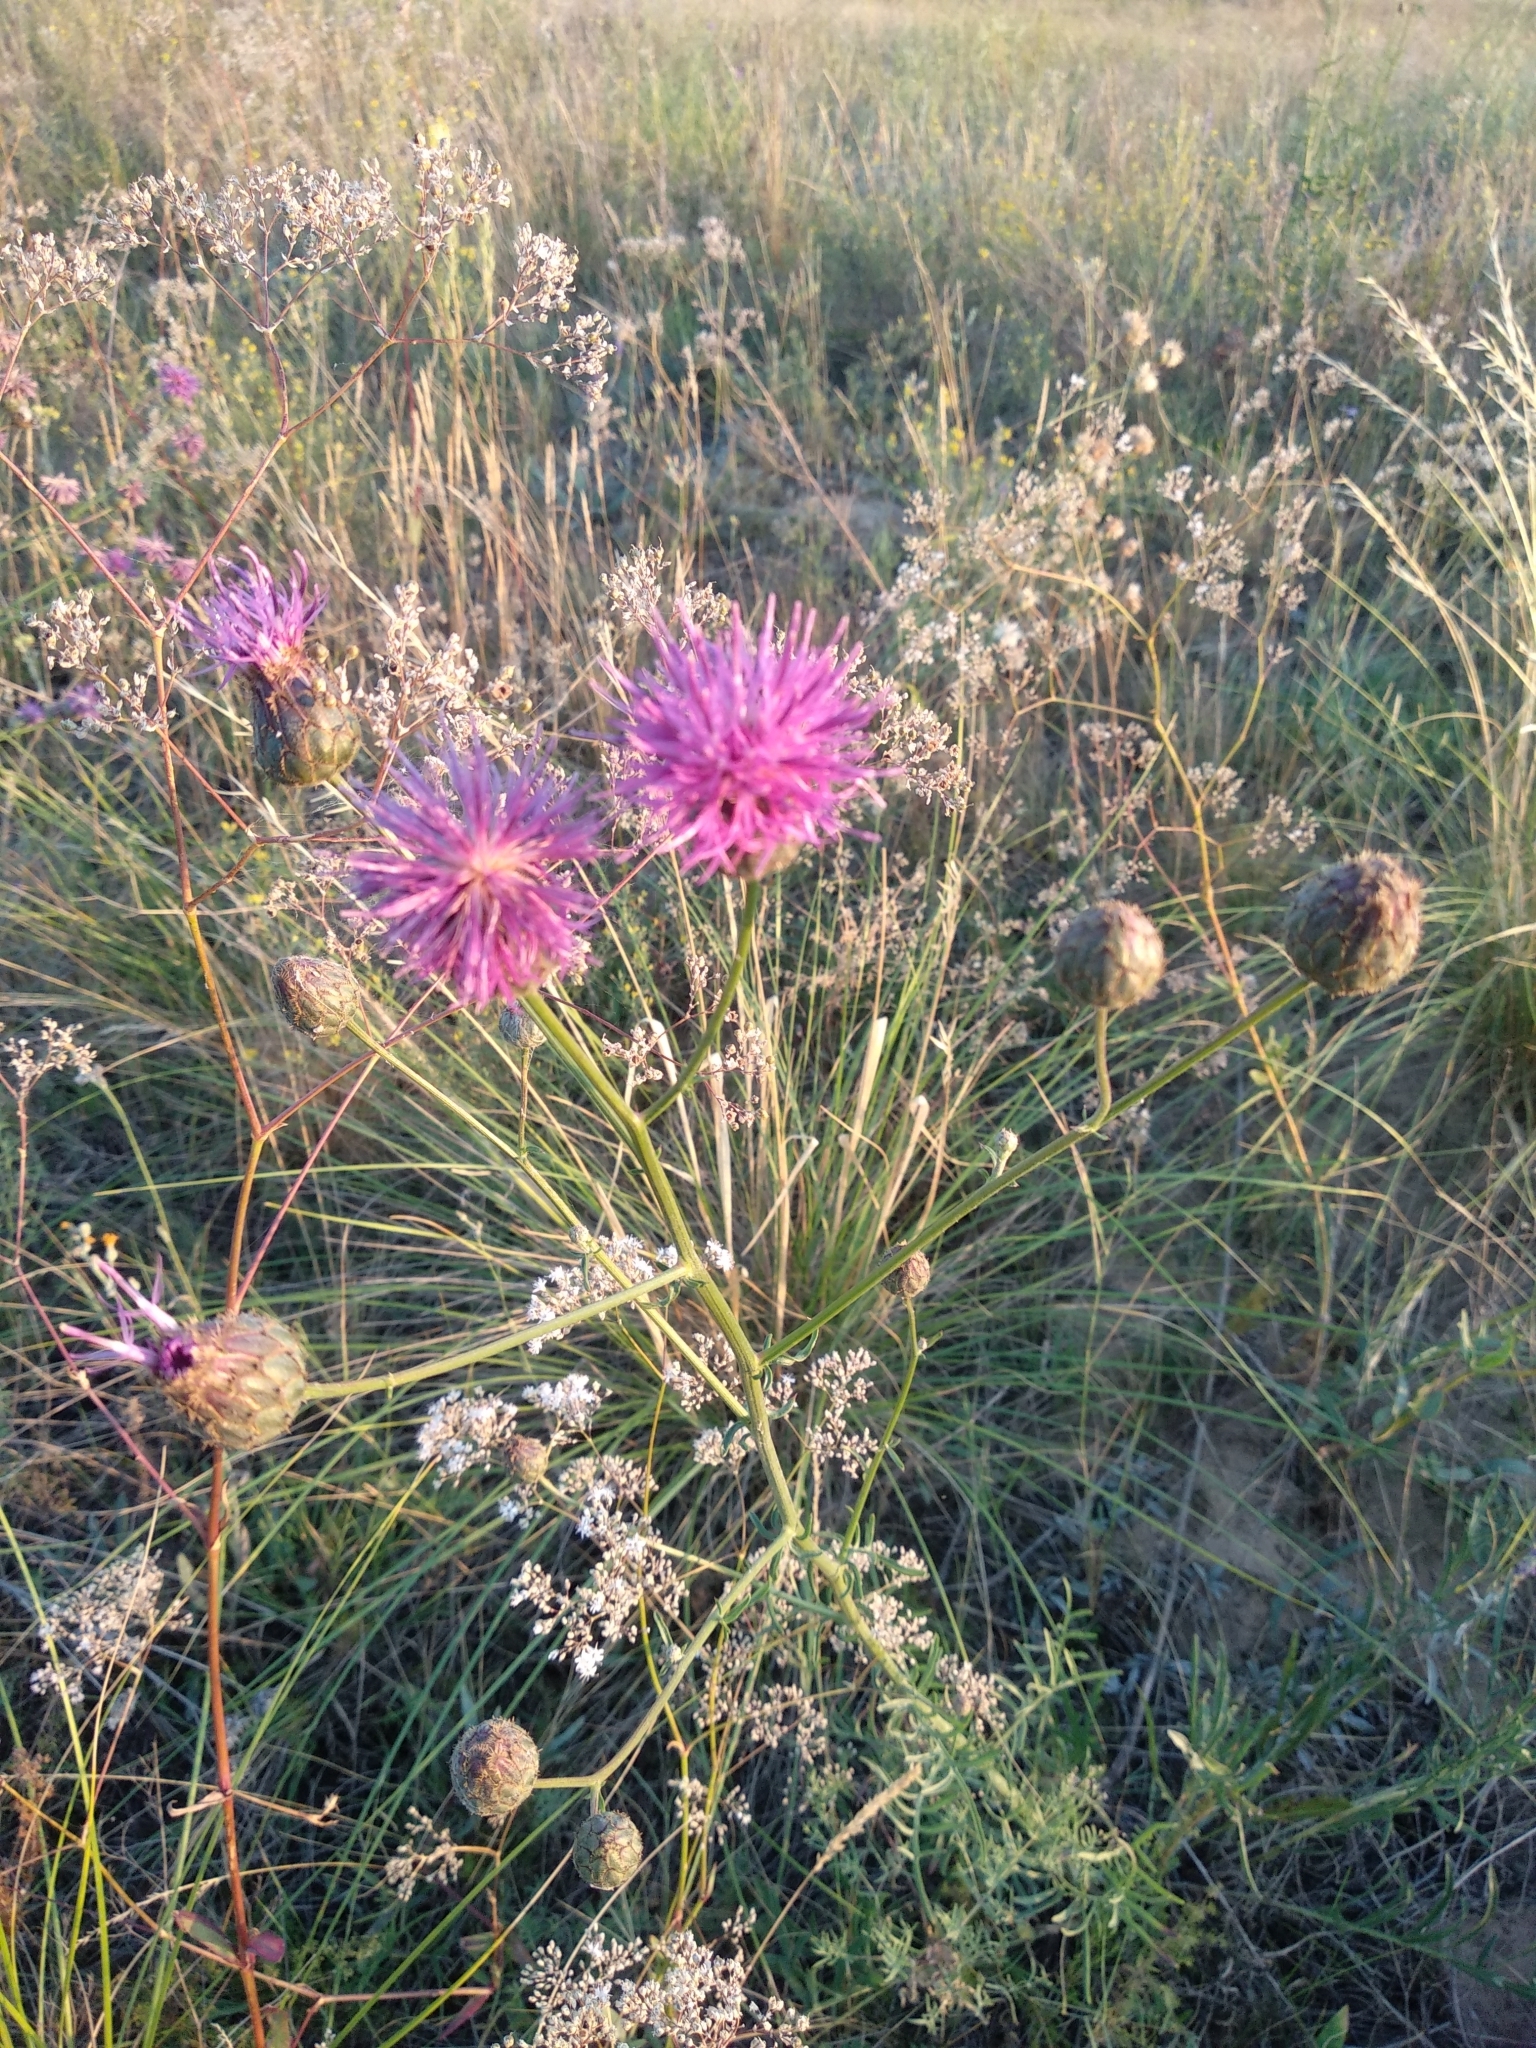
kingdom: Plantae
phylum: Tracheophyta
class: Magnoliopsida
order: Asterales
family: Asteraceae
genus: Centaurea
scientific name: Centaurea scabiosa
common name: Greater knapweed
